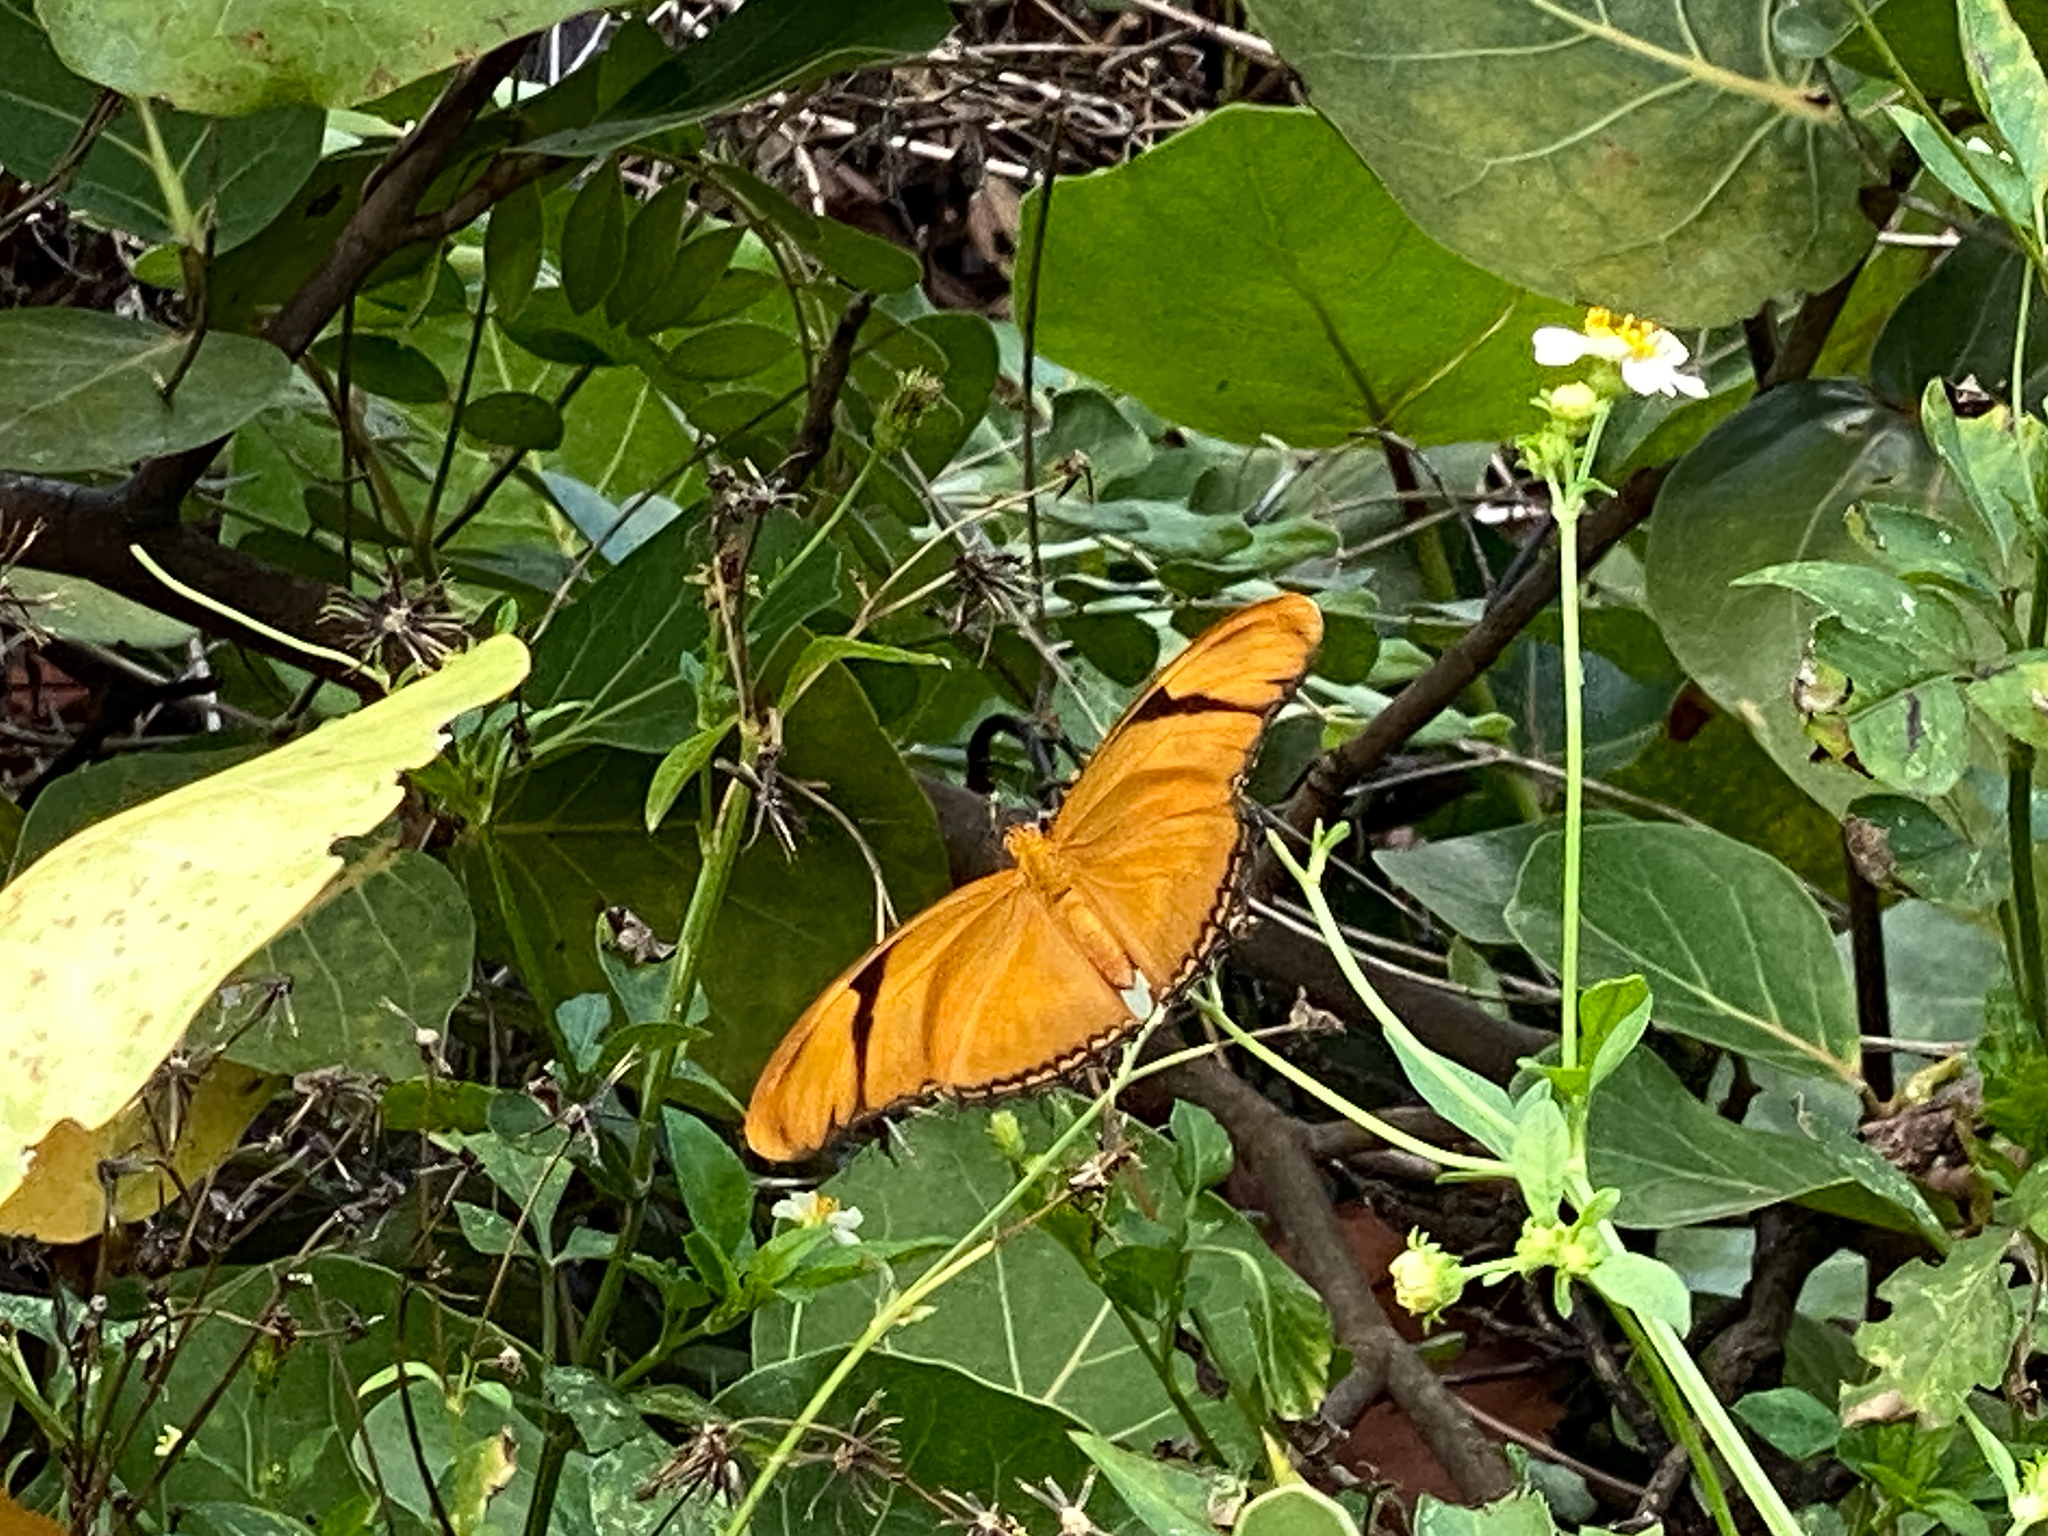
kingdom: Animalia
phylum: Arthropoda
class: Insecta
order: Lepidoptera
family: Nymphalidae
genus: Dryas
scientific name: Dryas iulia
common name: Flambeau
